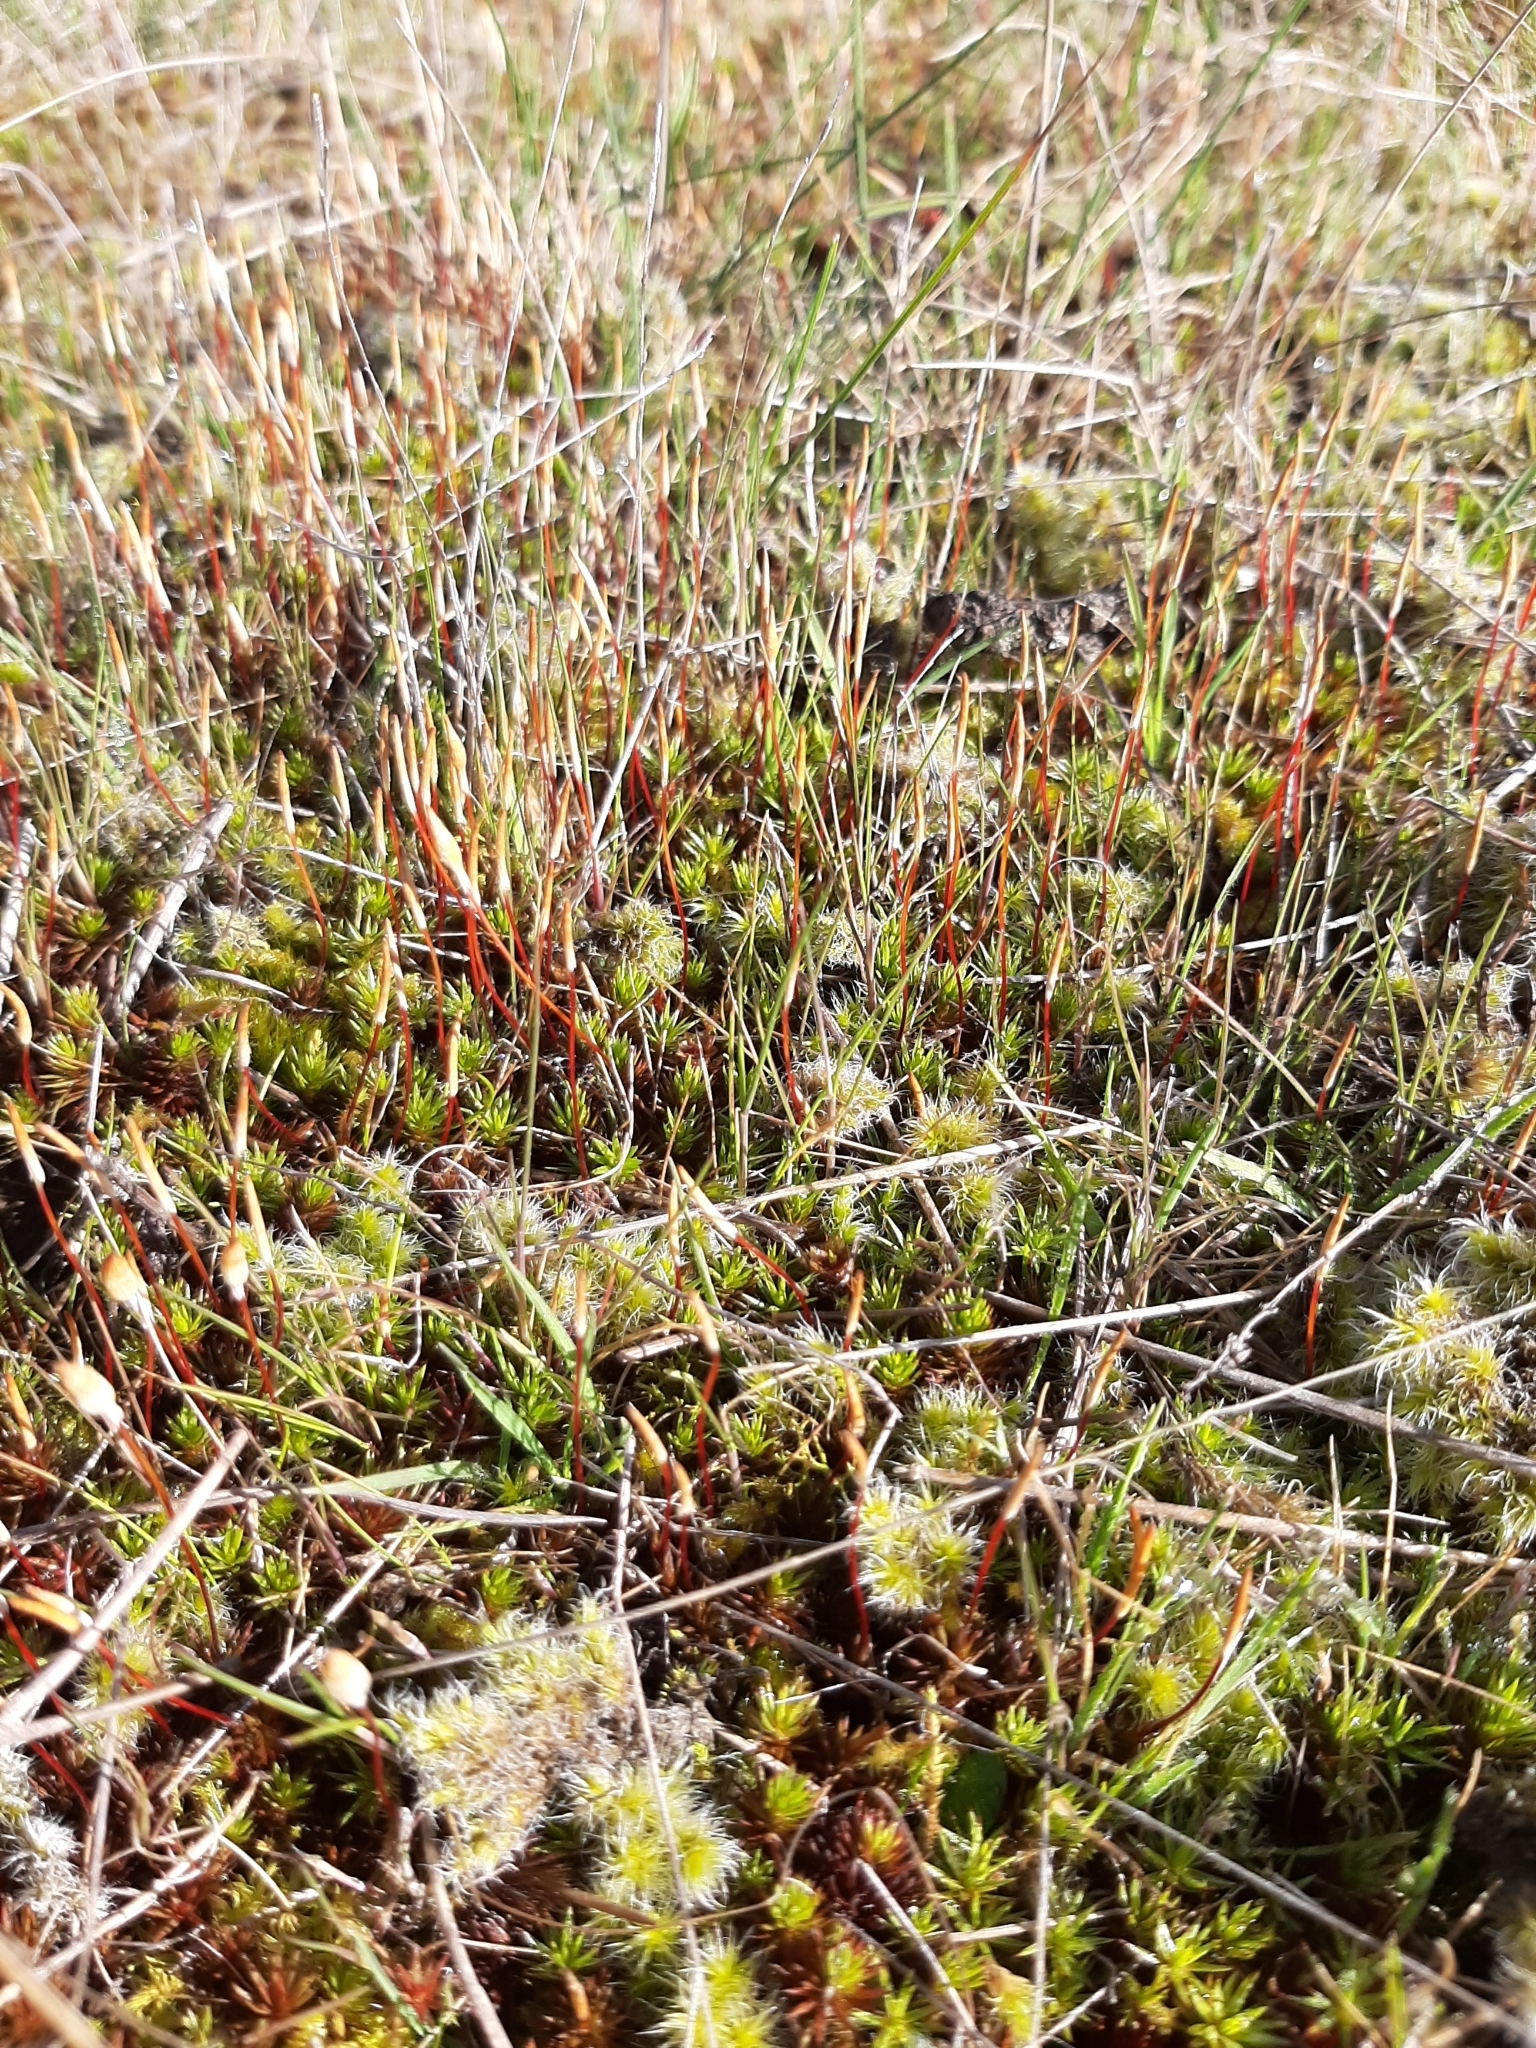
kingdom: Plantae
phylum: Bryophyta
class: Polytrichopsida
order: Polytrichales
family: Polytrichaceae
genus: Polytrichum
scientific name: Polytrichum juniperinum
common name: Juniper haircap moss
